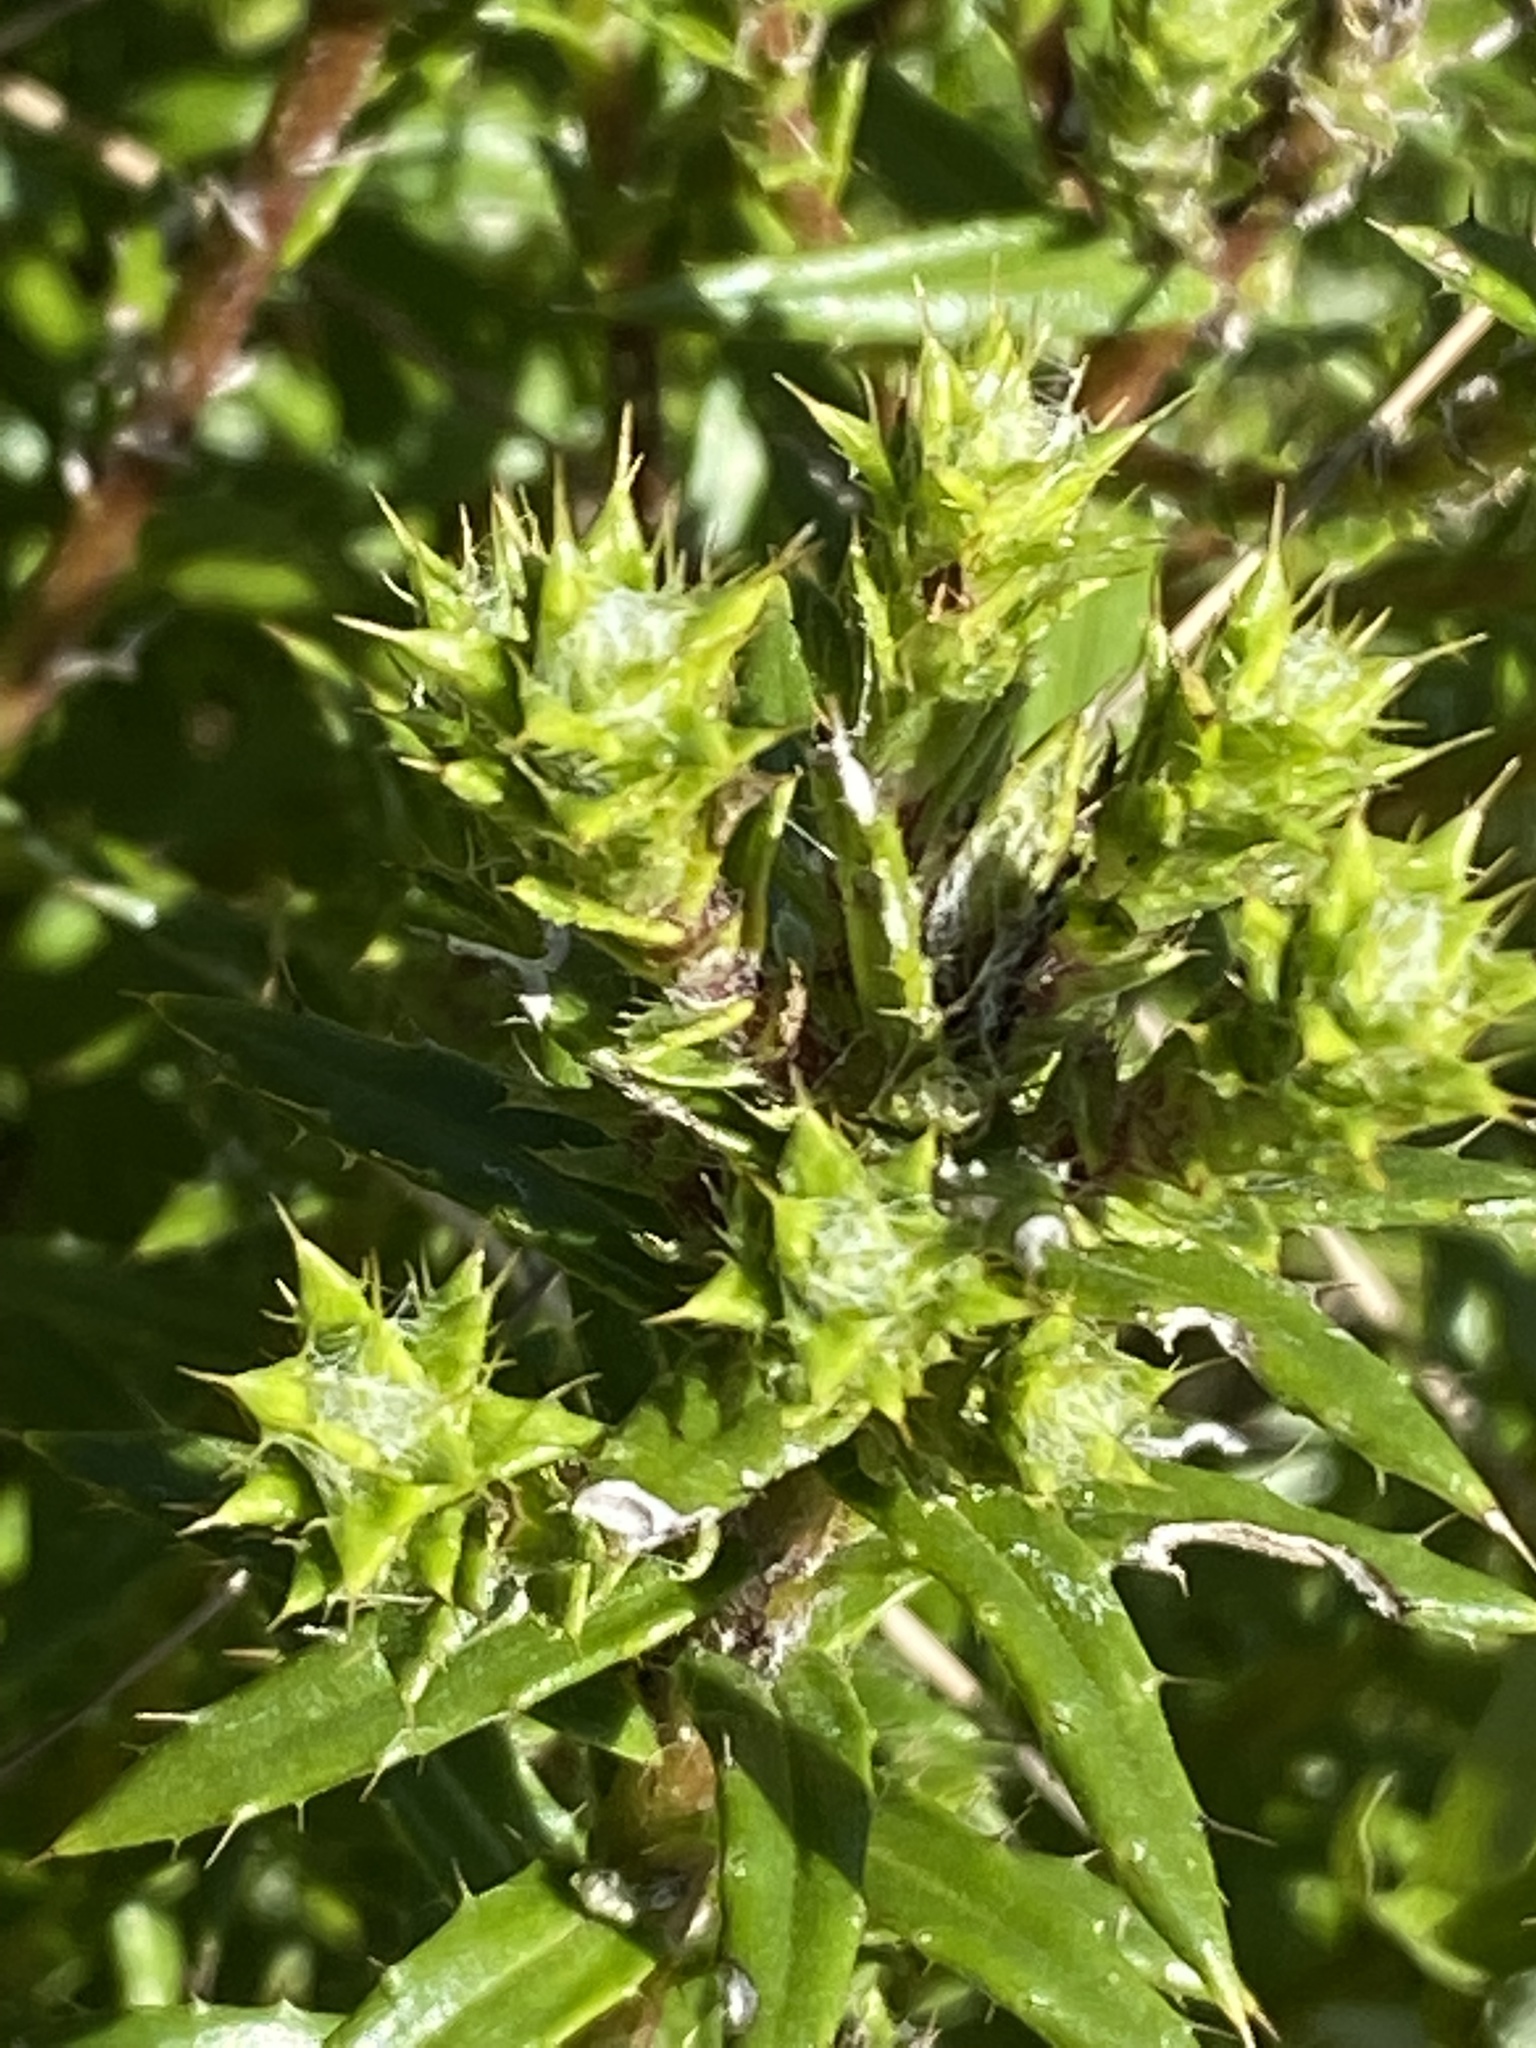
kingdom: Plantae
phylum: Tracheophyta
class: Magnoliopsida
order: Asterales
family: Asteraceae
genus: Cullumia
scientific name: Cullumia carlinoides
